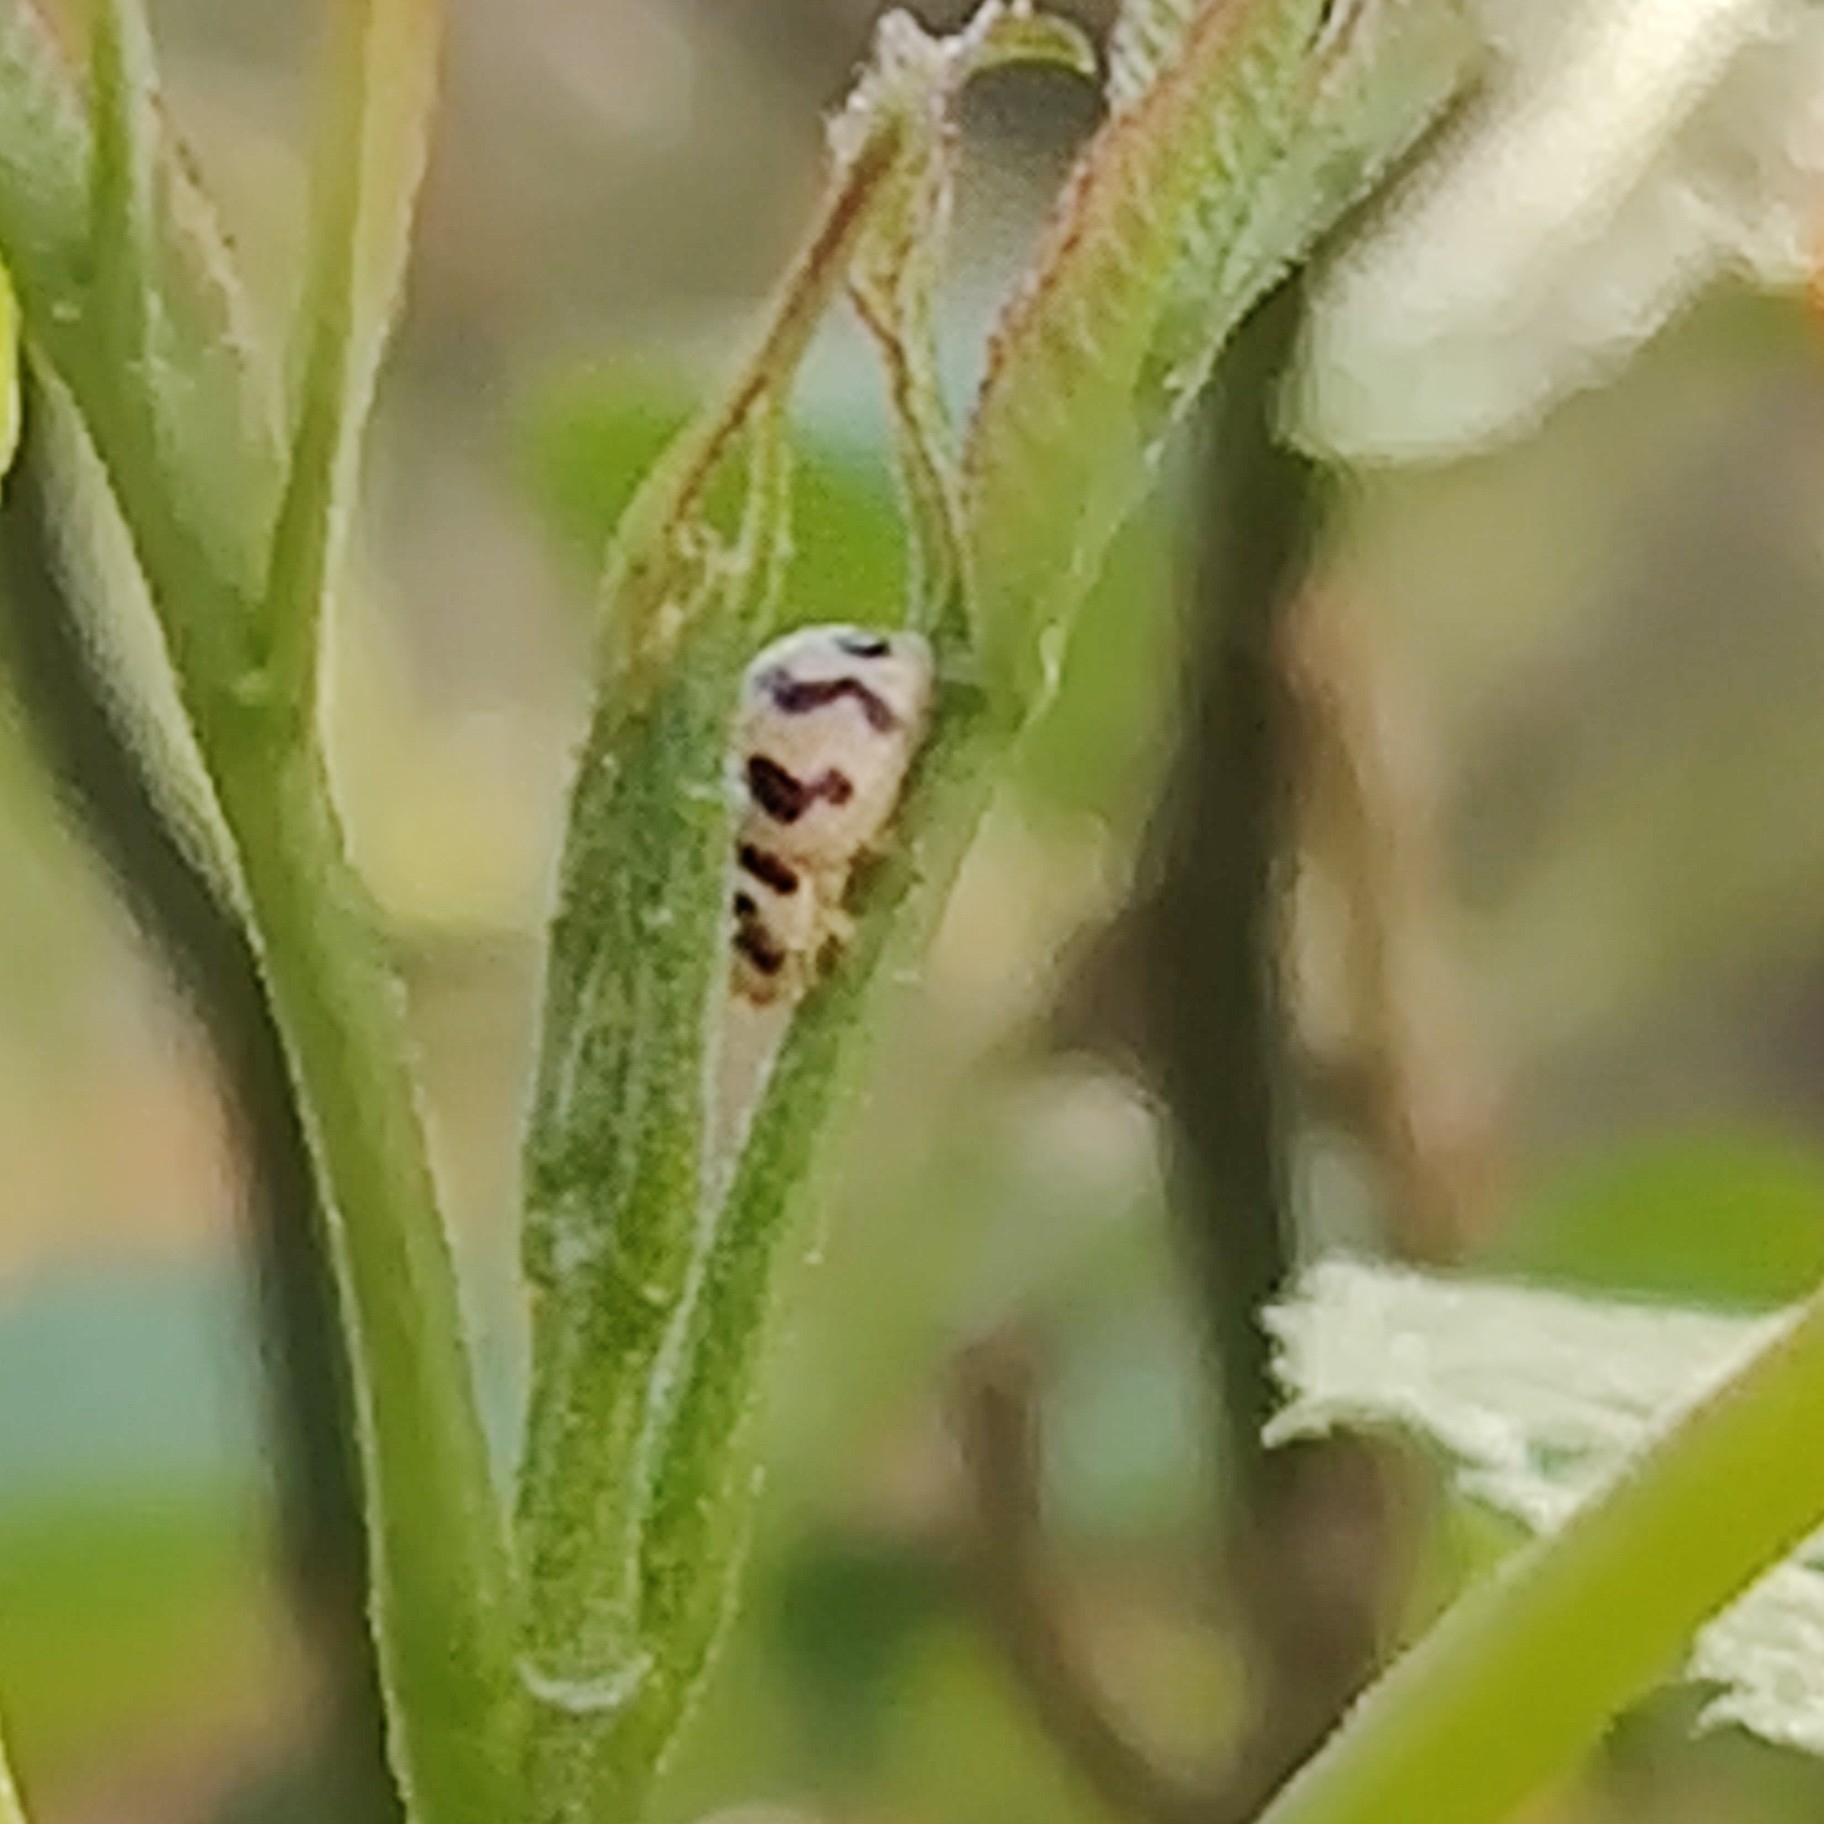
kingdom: Animalia
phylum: Arthropoda
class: Insecta
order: Coleoptera
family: Coccinellidae
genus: Cheilomenes
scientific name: Cheilomenes sexmaculata
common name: Ladybird beetle
